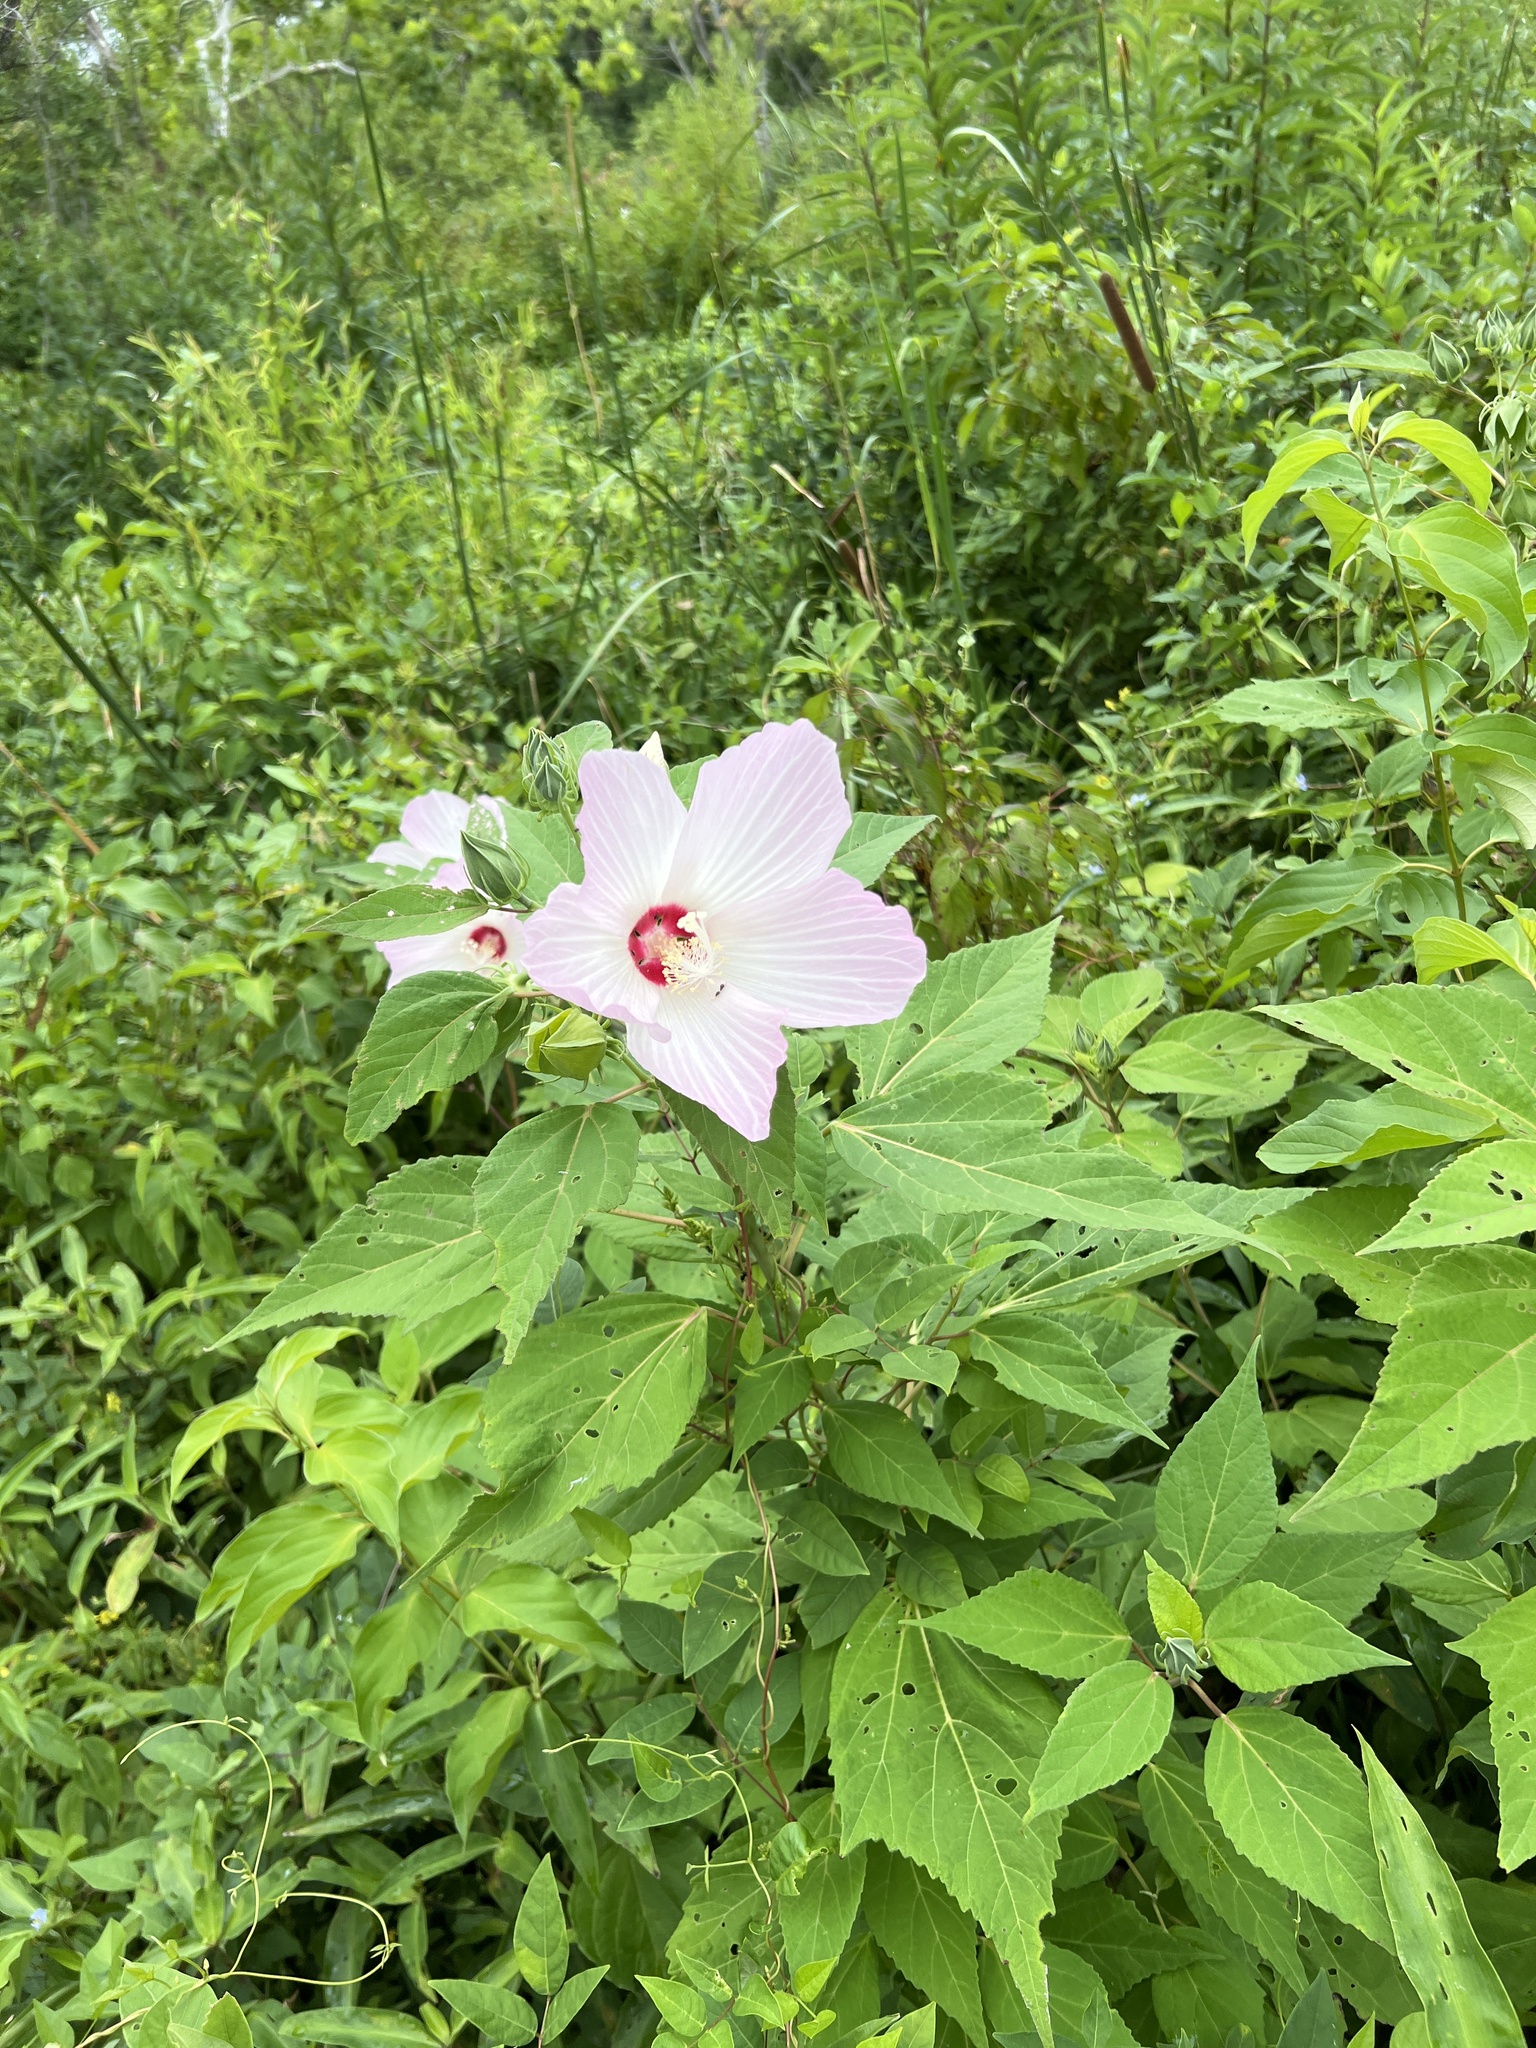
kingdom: Plantae
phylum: Tracheophyta
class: Magnoliopsida
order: Malvales
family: Malvaceae
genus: Hibiscus
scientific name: Hibiscus moscheutos
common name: Common rose-mallow
